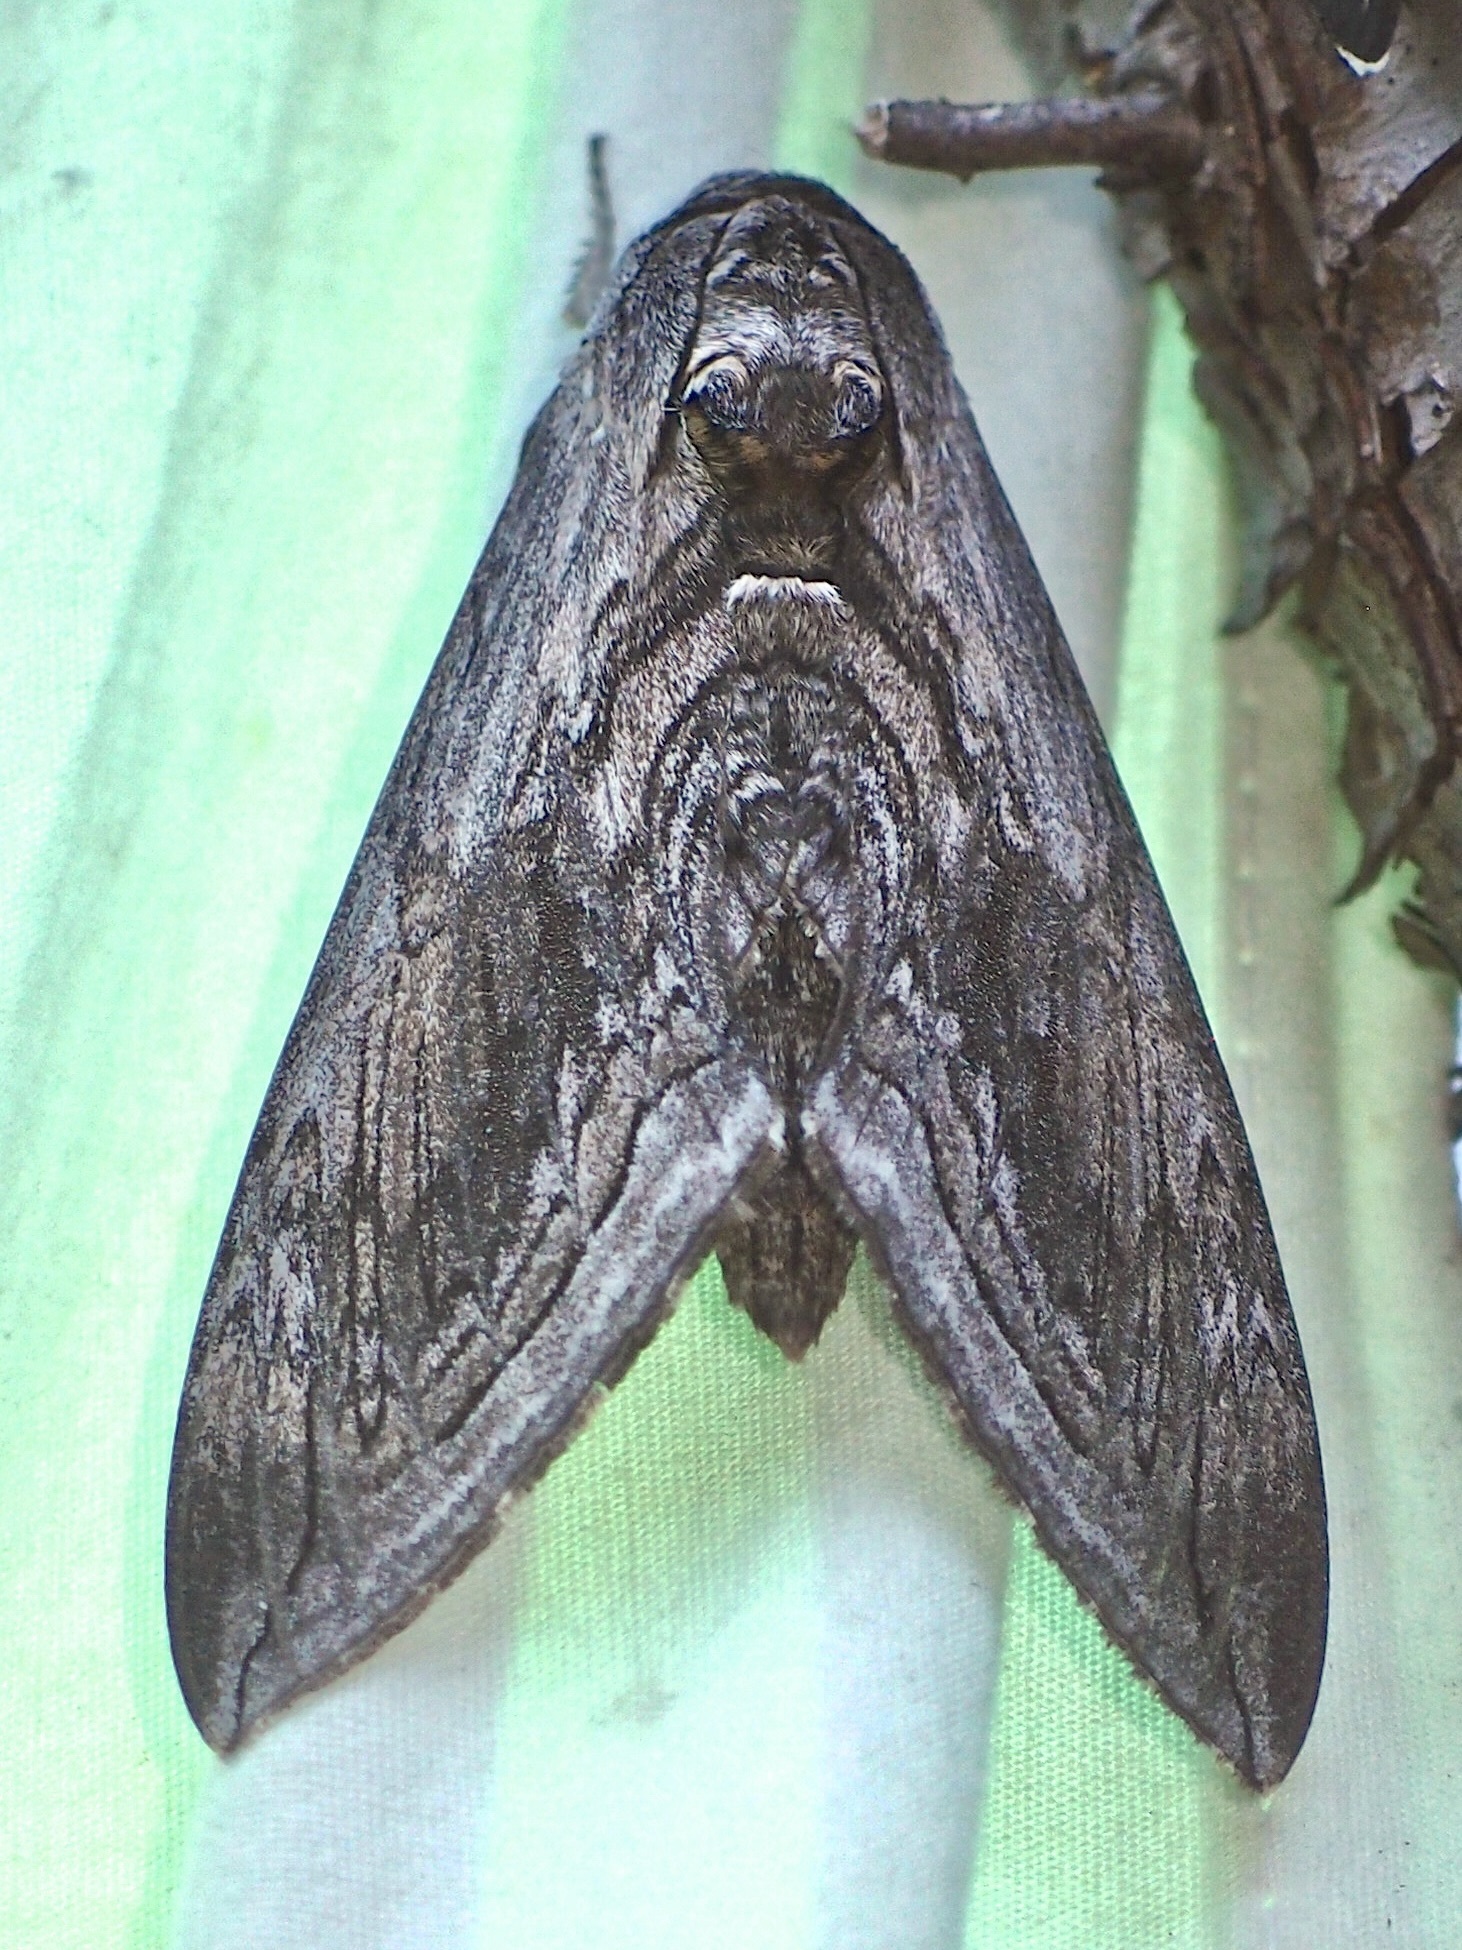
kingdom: Animalia
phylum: Arthropoda
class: Insecta
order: Lepidoptera
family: Sphingidae
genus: Manduca
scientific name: Manduca quinquemaculatus
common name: Five-spotted hawk-moth
